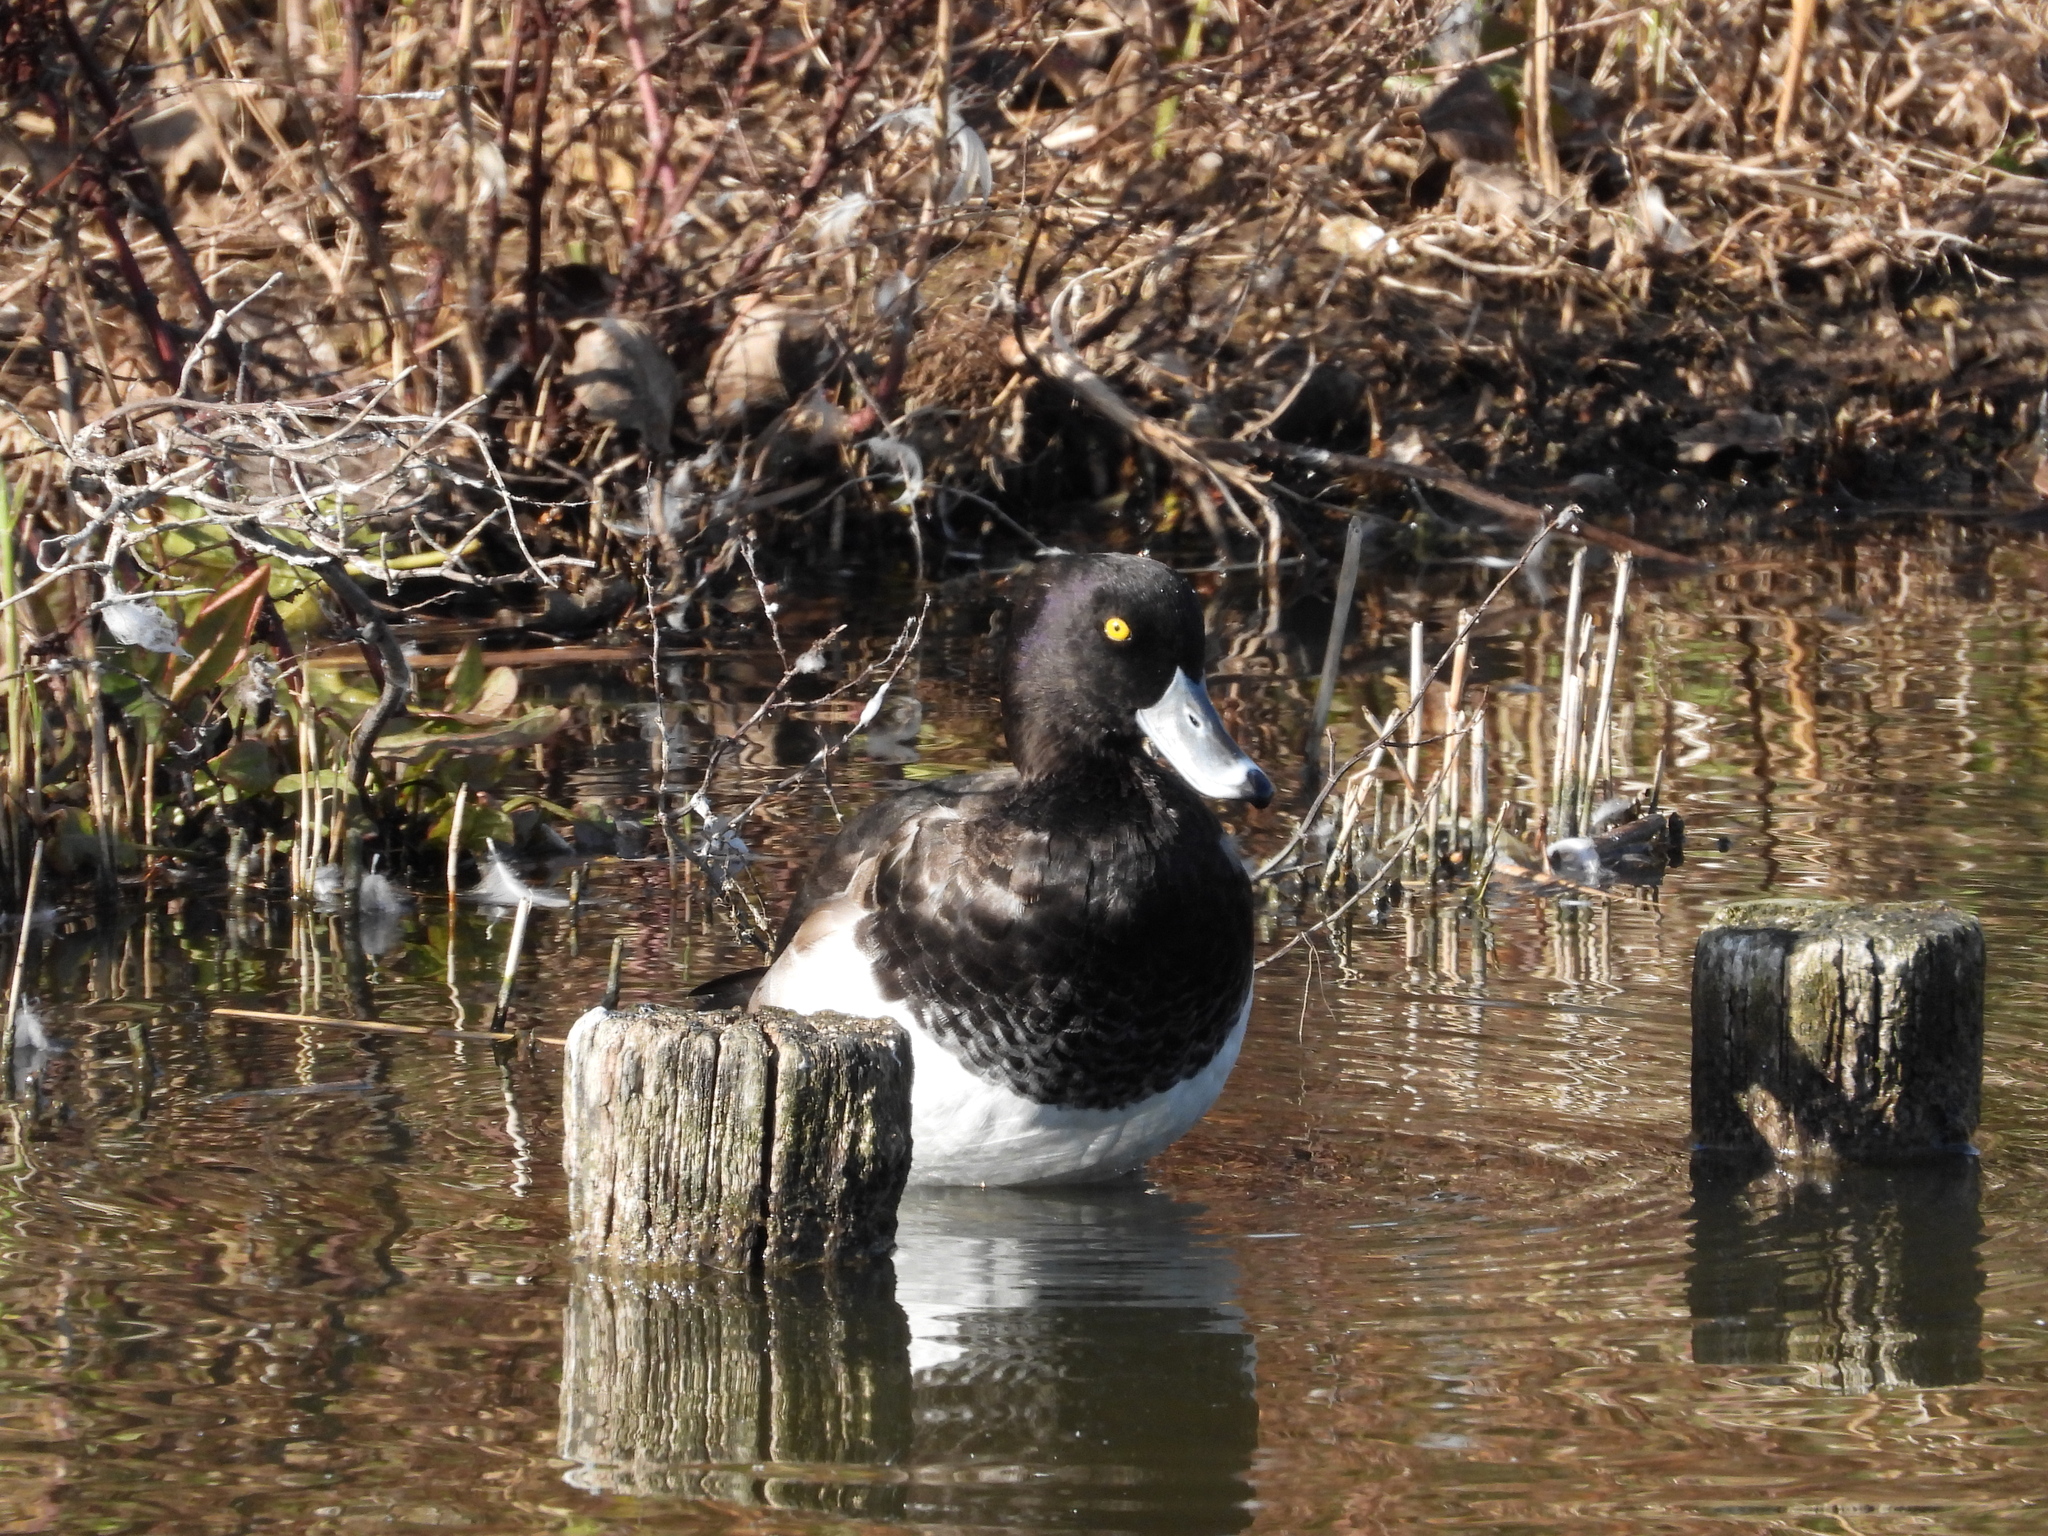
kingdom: Animalia
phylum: Chordata
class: Aves
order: Anseriformes
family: Anatidae
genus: Aythya
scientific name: Aythya fuligula
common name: Tufted duck
